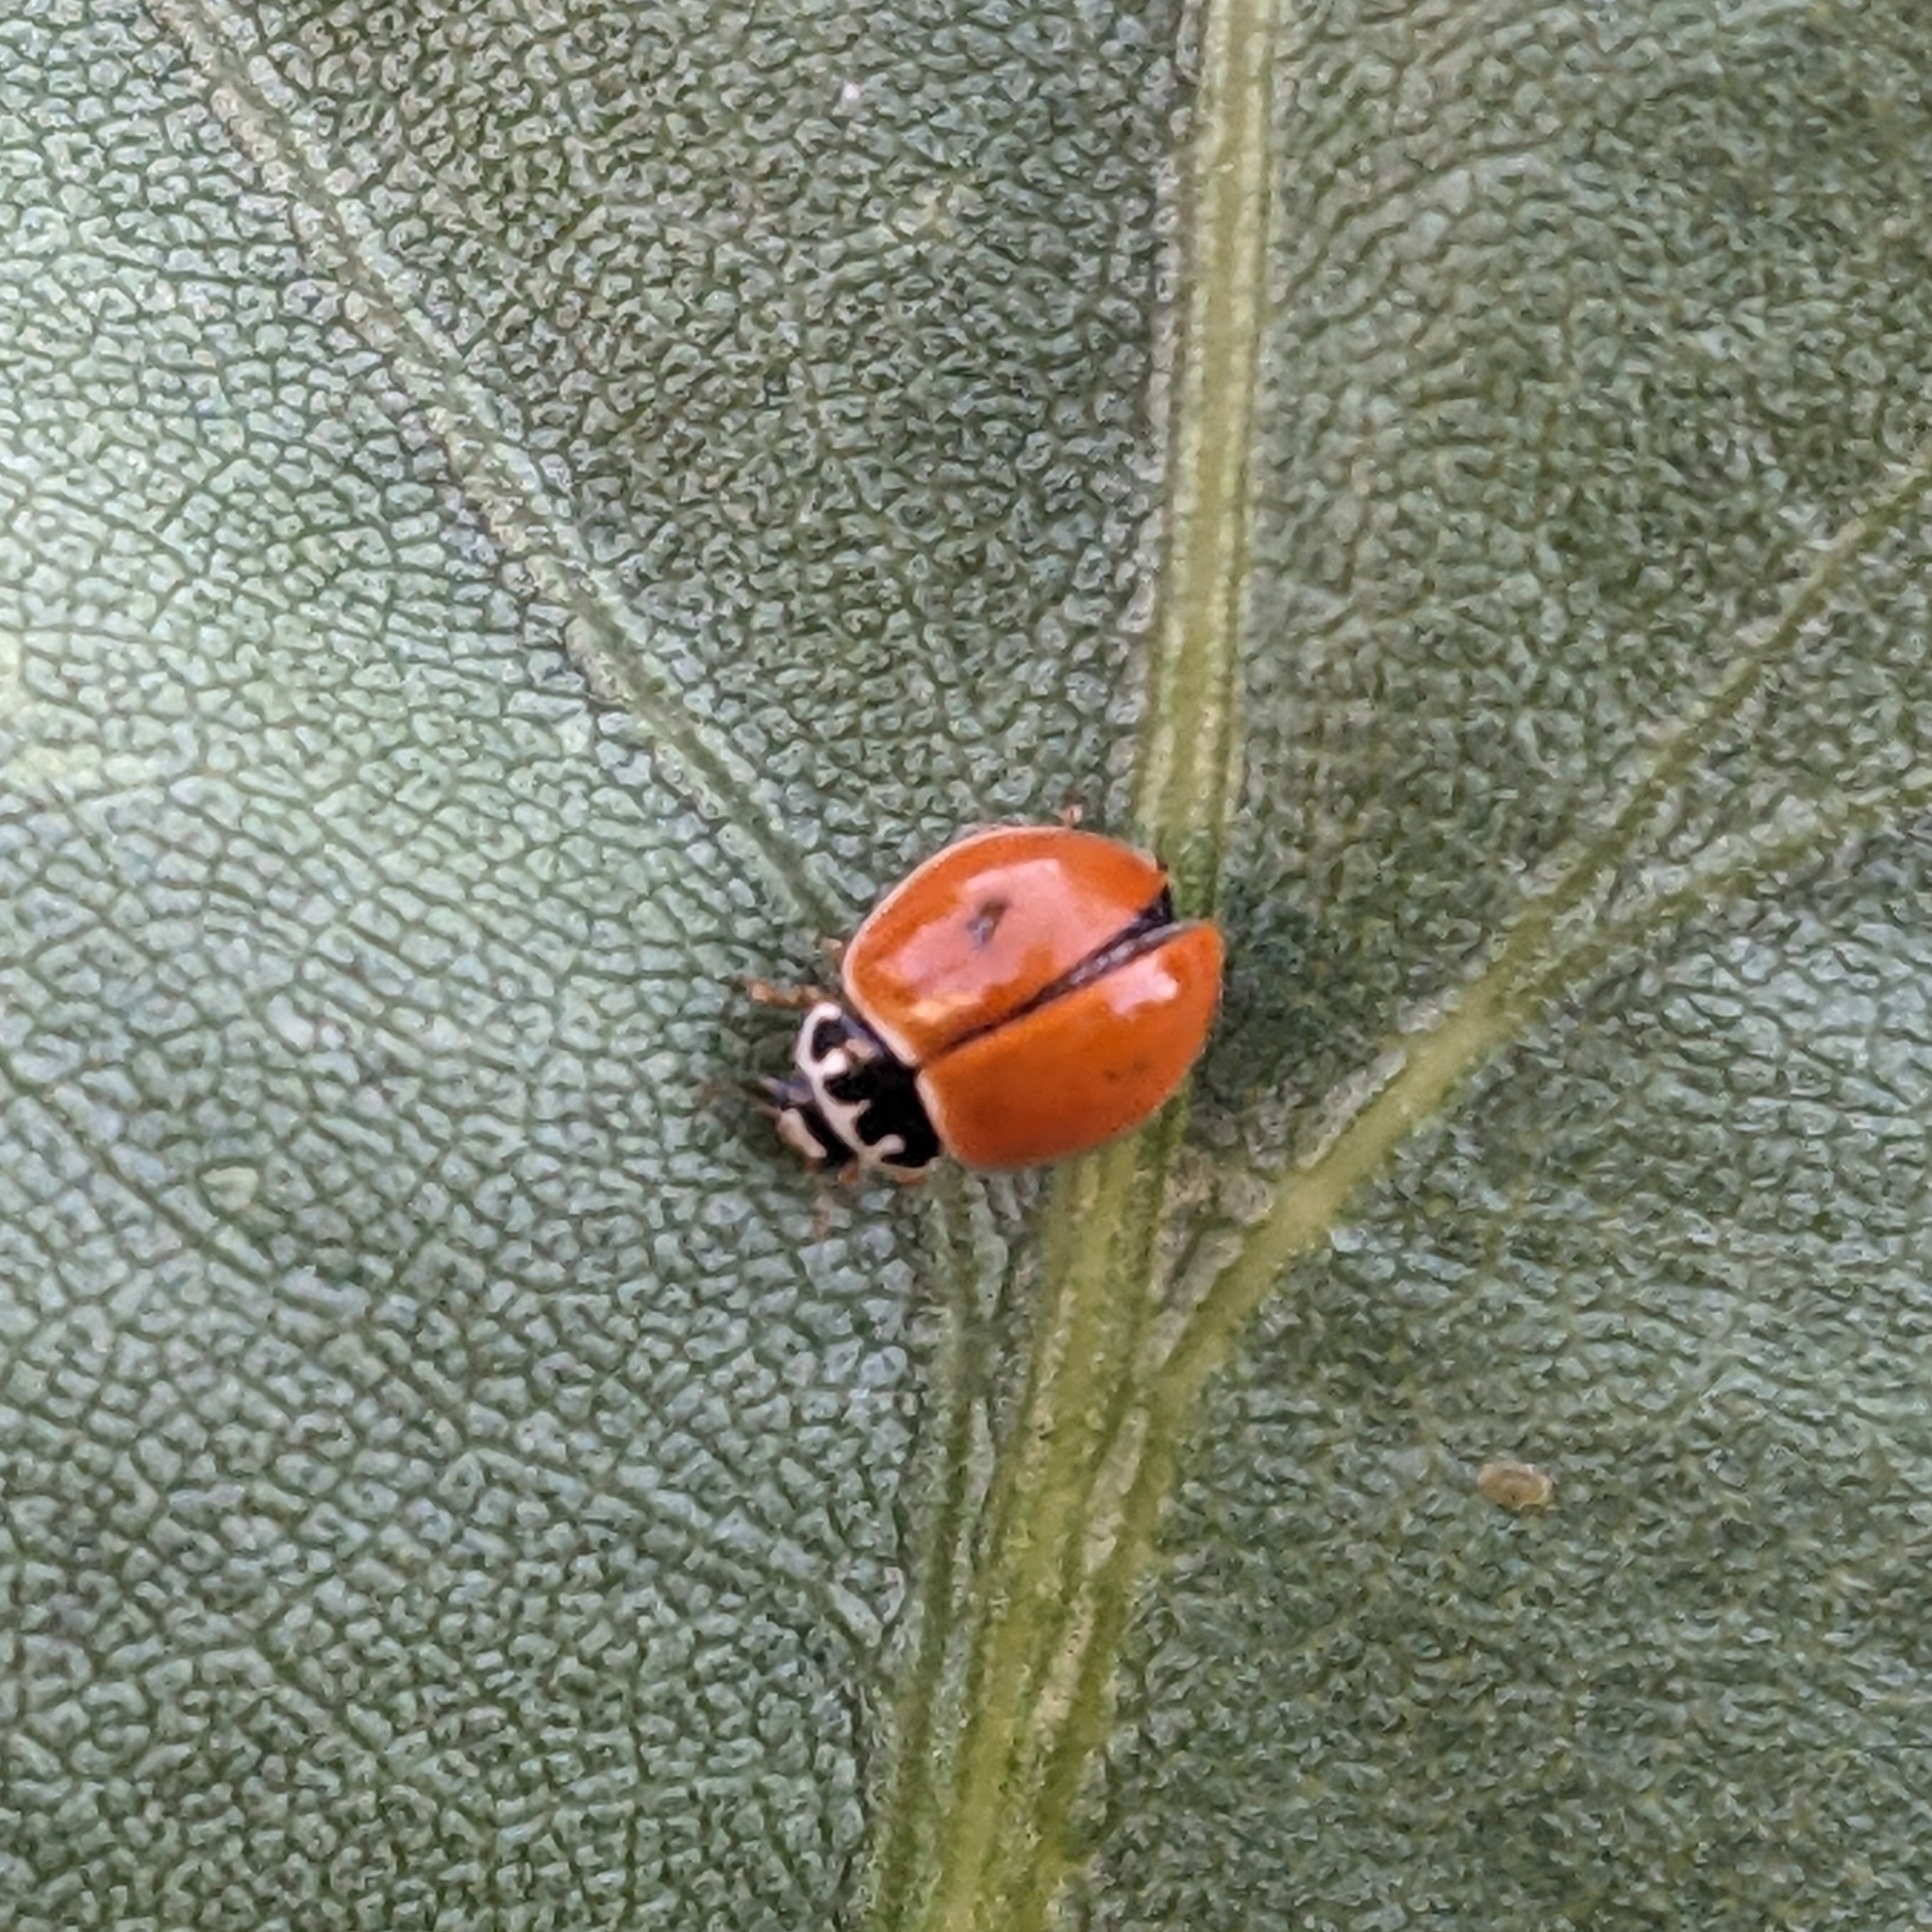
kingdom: Animalia
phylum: Arthropoda
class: Insecta
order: Coleoptera
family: Coccinellidae
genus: Cycloneda
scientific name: Cycloneda munda
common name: Polished lady beetle
